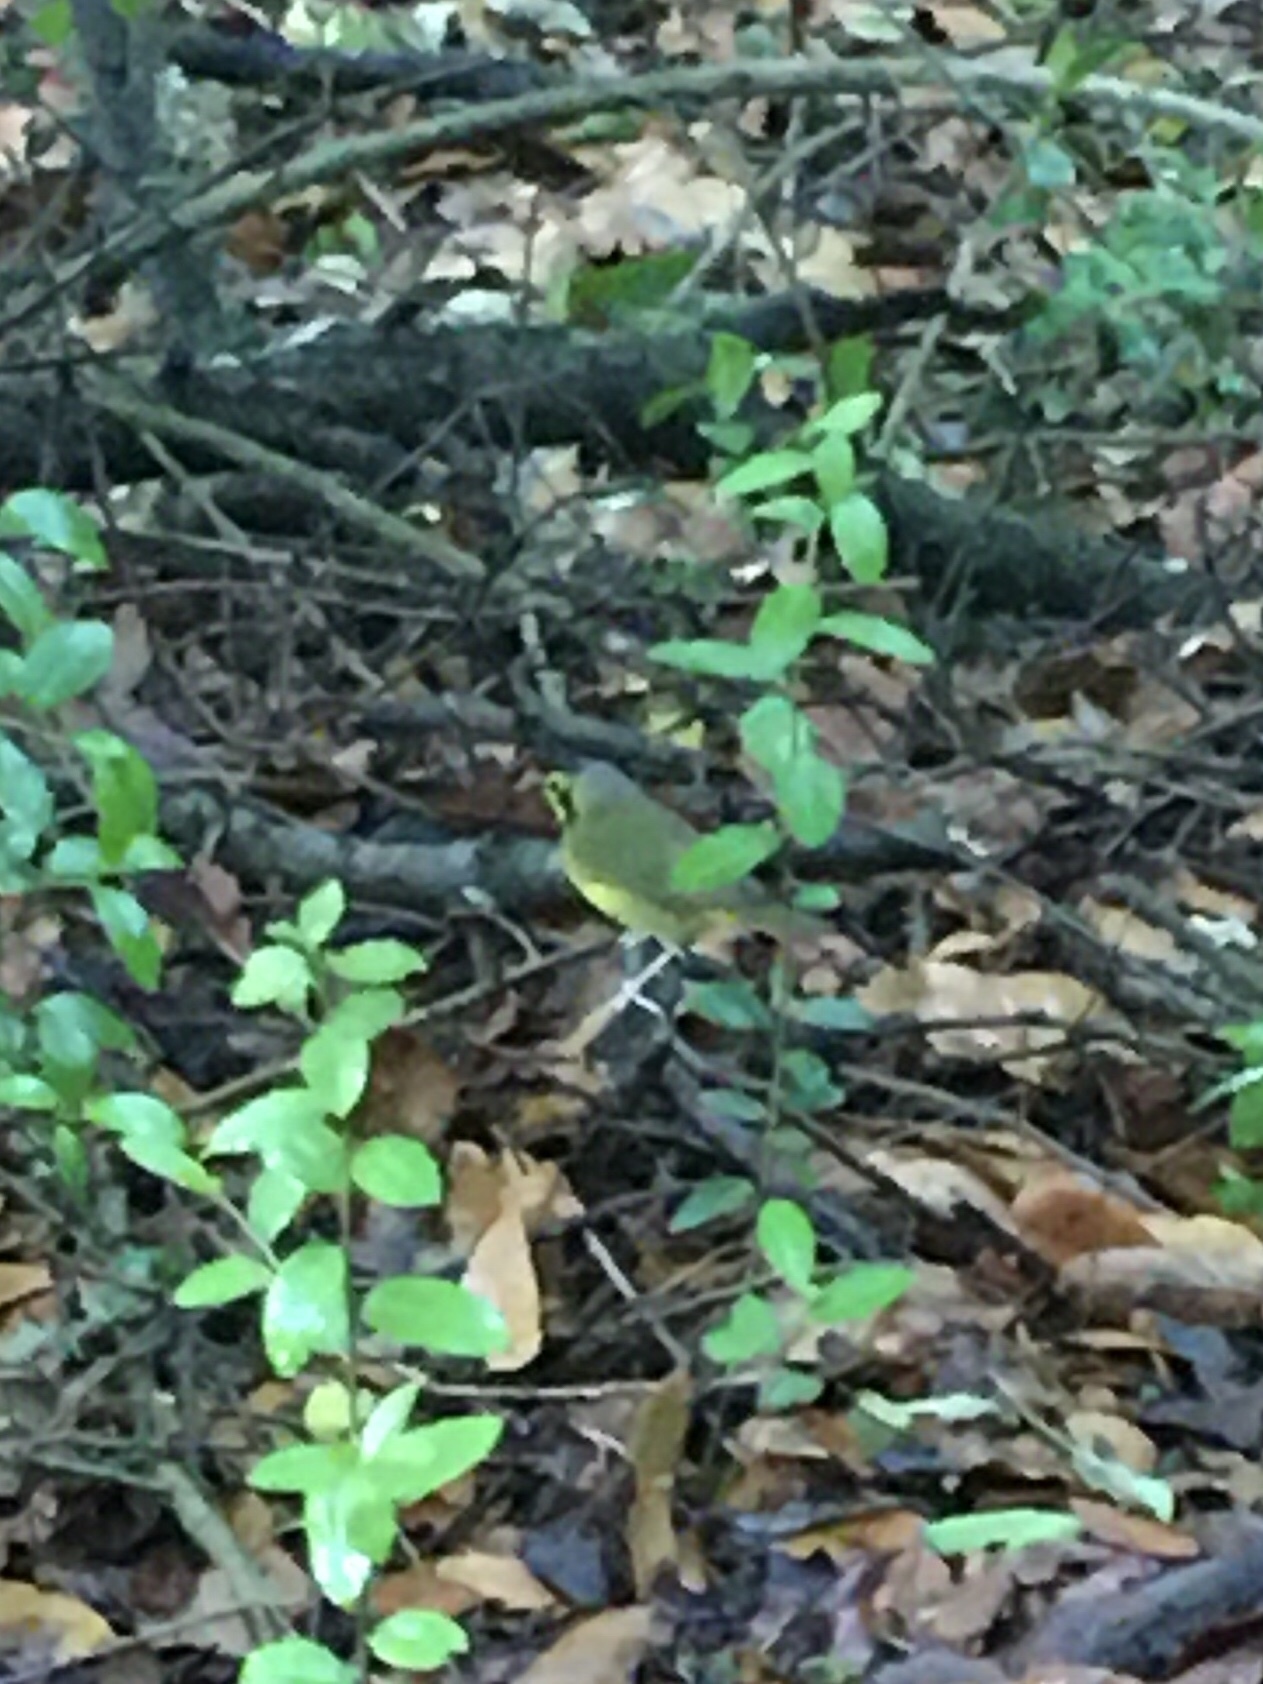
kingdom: Animalia
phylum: Chordata
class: Aves
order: Passeriformes
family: Parulidae
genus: Geothlypis
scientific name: Geothlypis formosa
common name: Kentucky warbler
